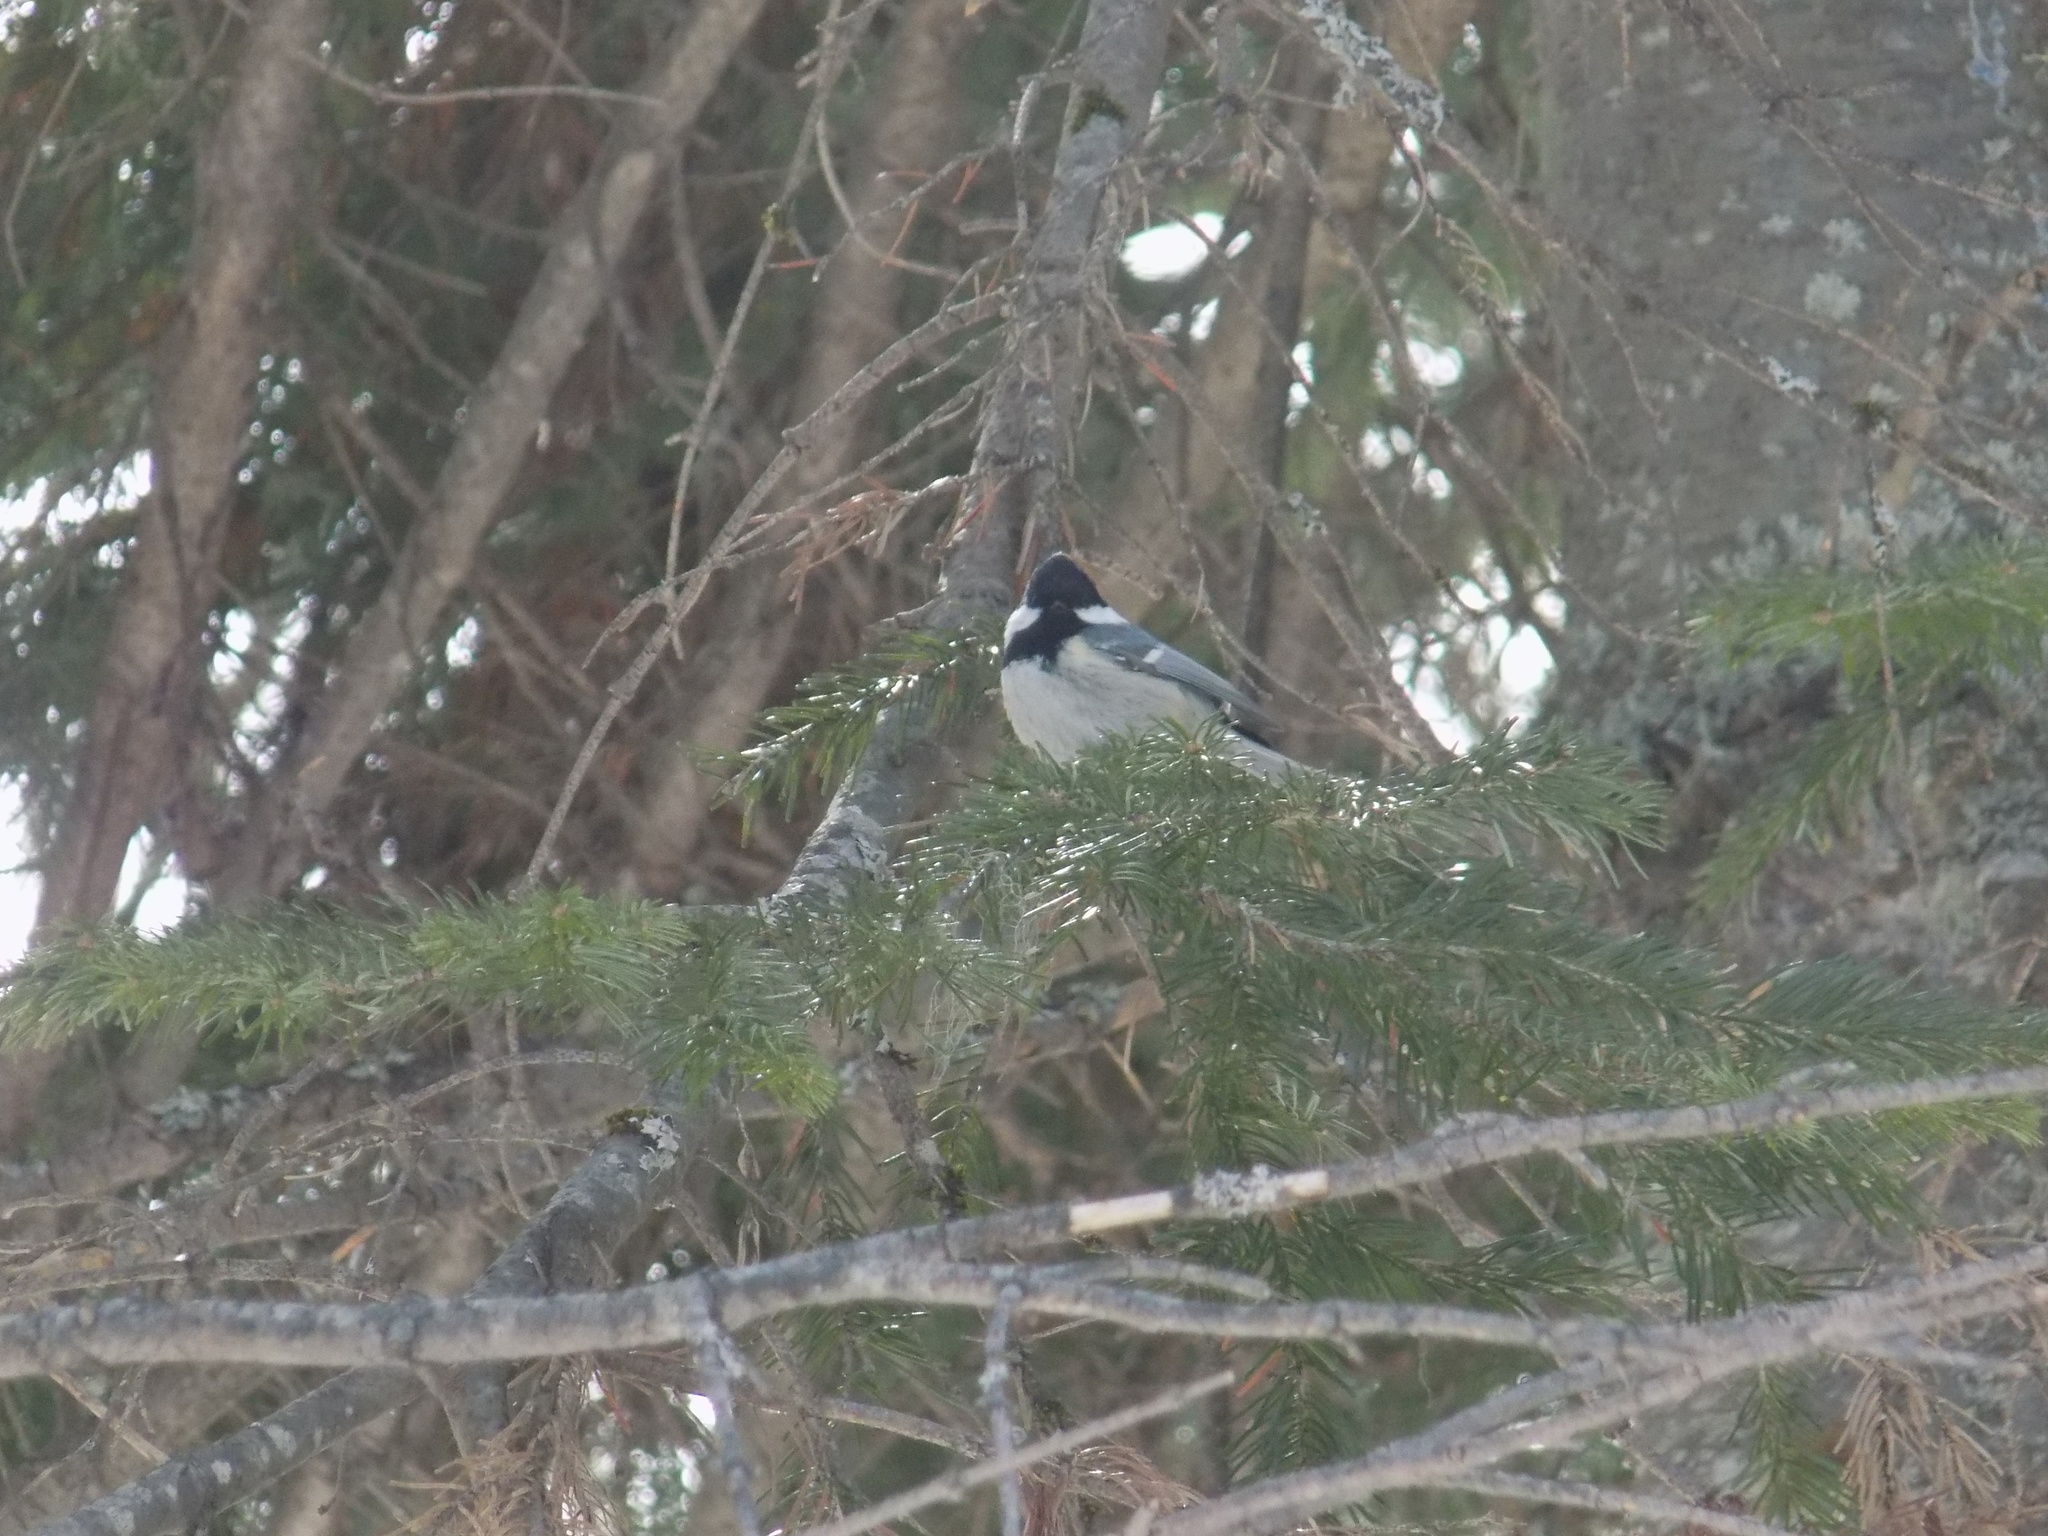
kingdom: Animalia
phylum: Chordata
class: Aves
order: Passeriformes
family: Paridae
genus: Periparus
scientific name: Periparus ater
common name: Coal tit
